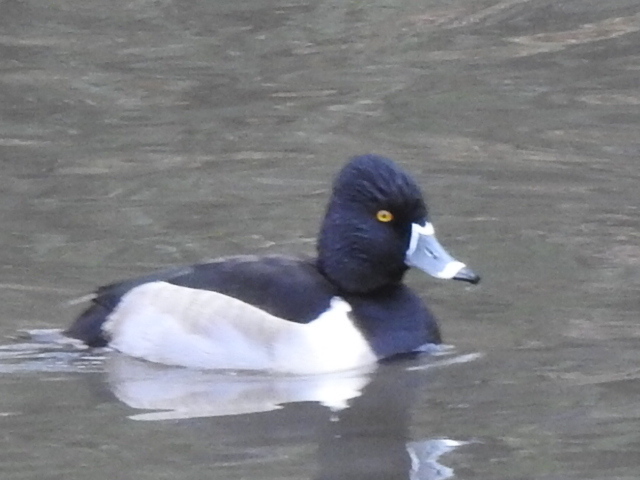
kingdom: Animalia
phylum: Chordata
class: Aves
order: Anseriformes
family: Anatidae
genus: Aythya
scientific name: Aythya collaris
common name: Ring-necked duck
